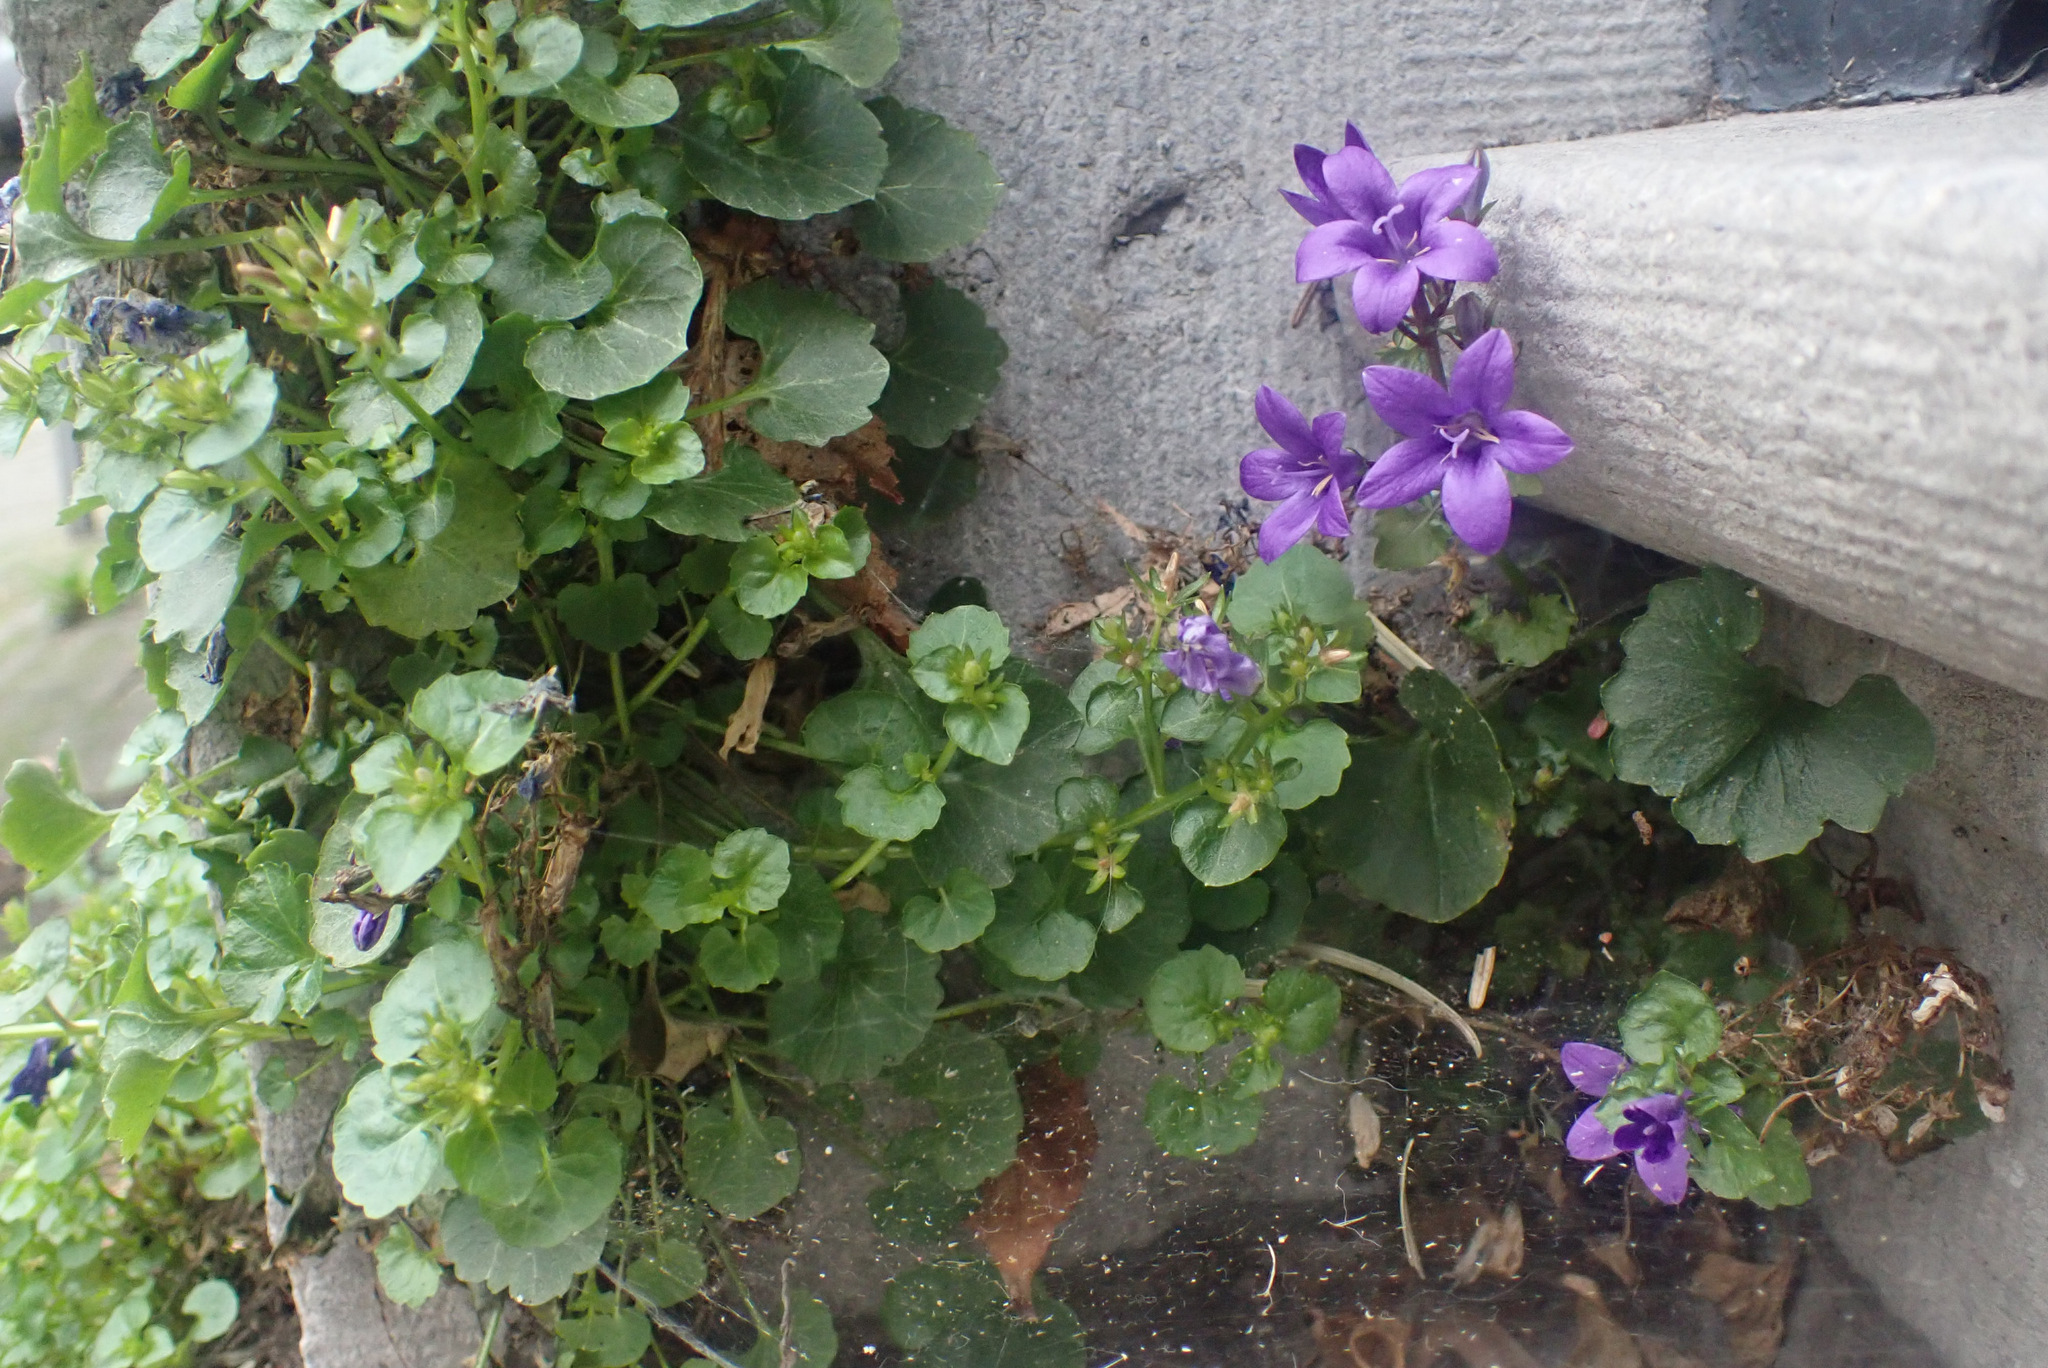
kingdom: Plantae
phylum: Tracheophyta
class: Magnoliopsida
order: Asterales
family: Campanulaceae
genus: Campanula
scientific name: Campanula portenschlagiana
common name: Adria bellflower
